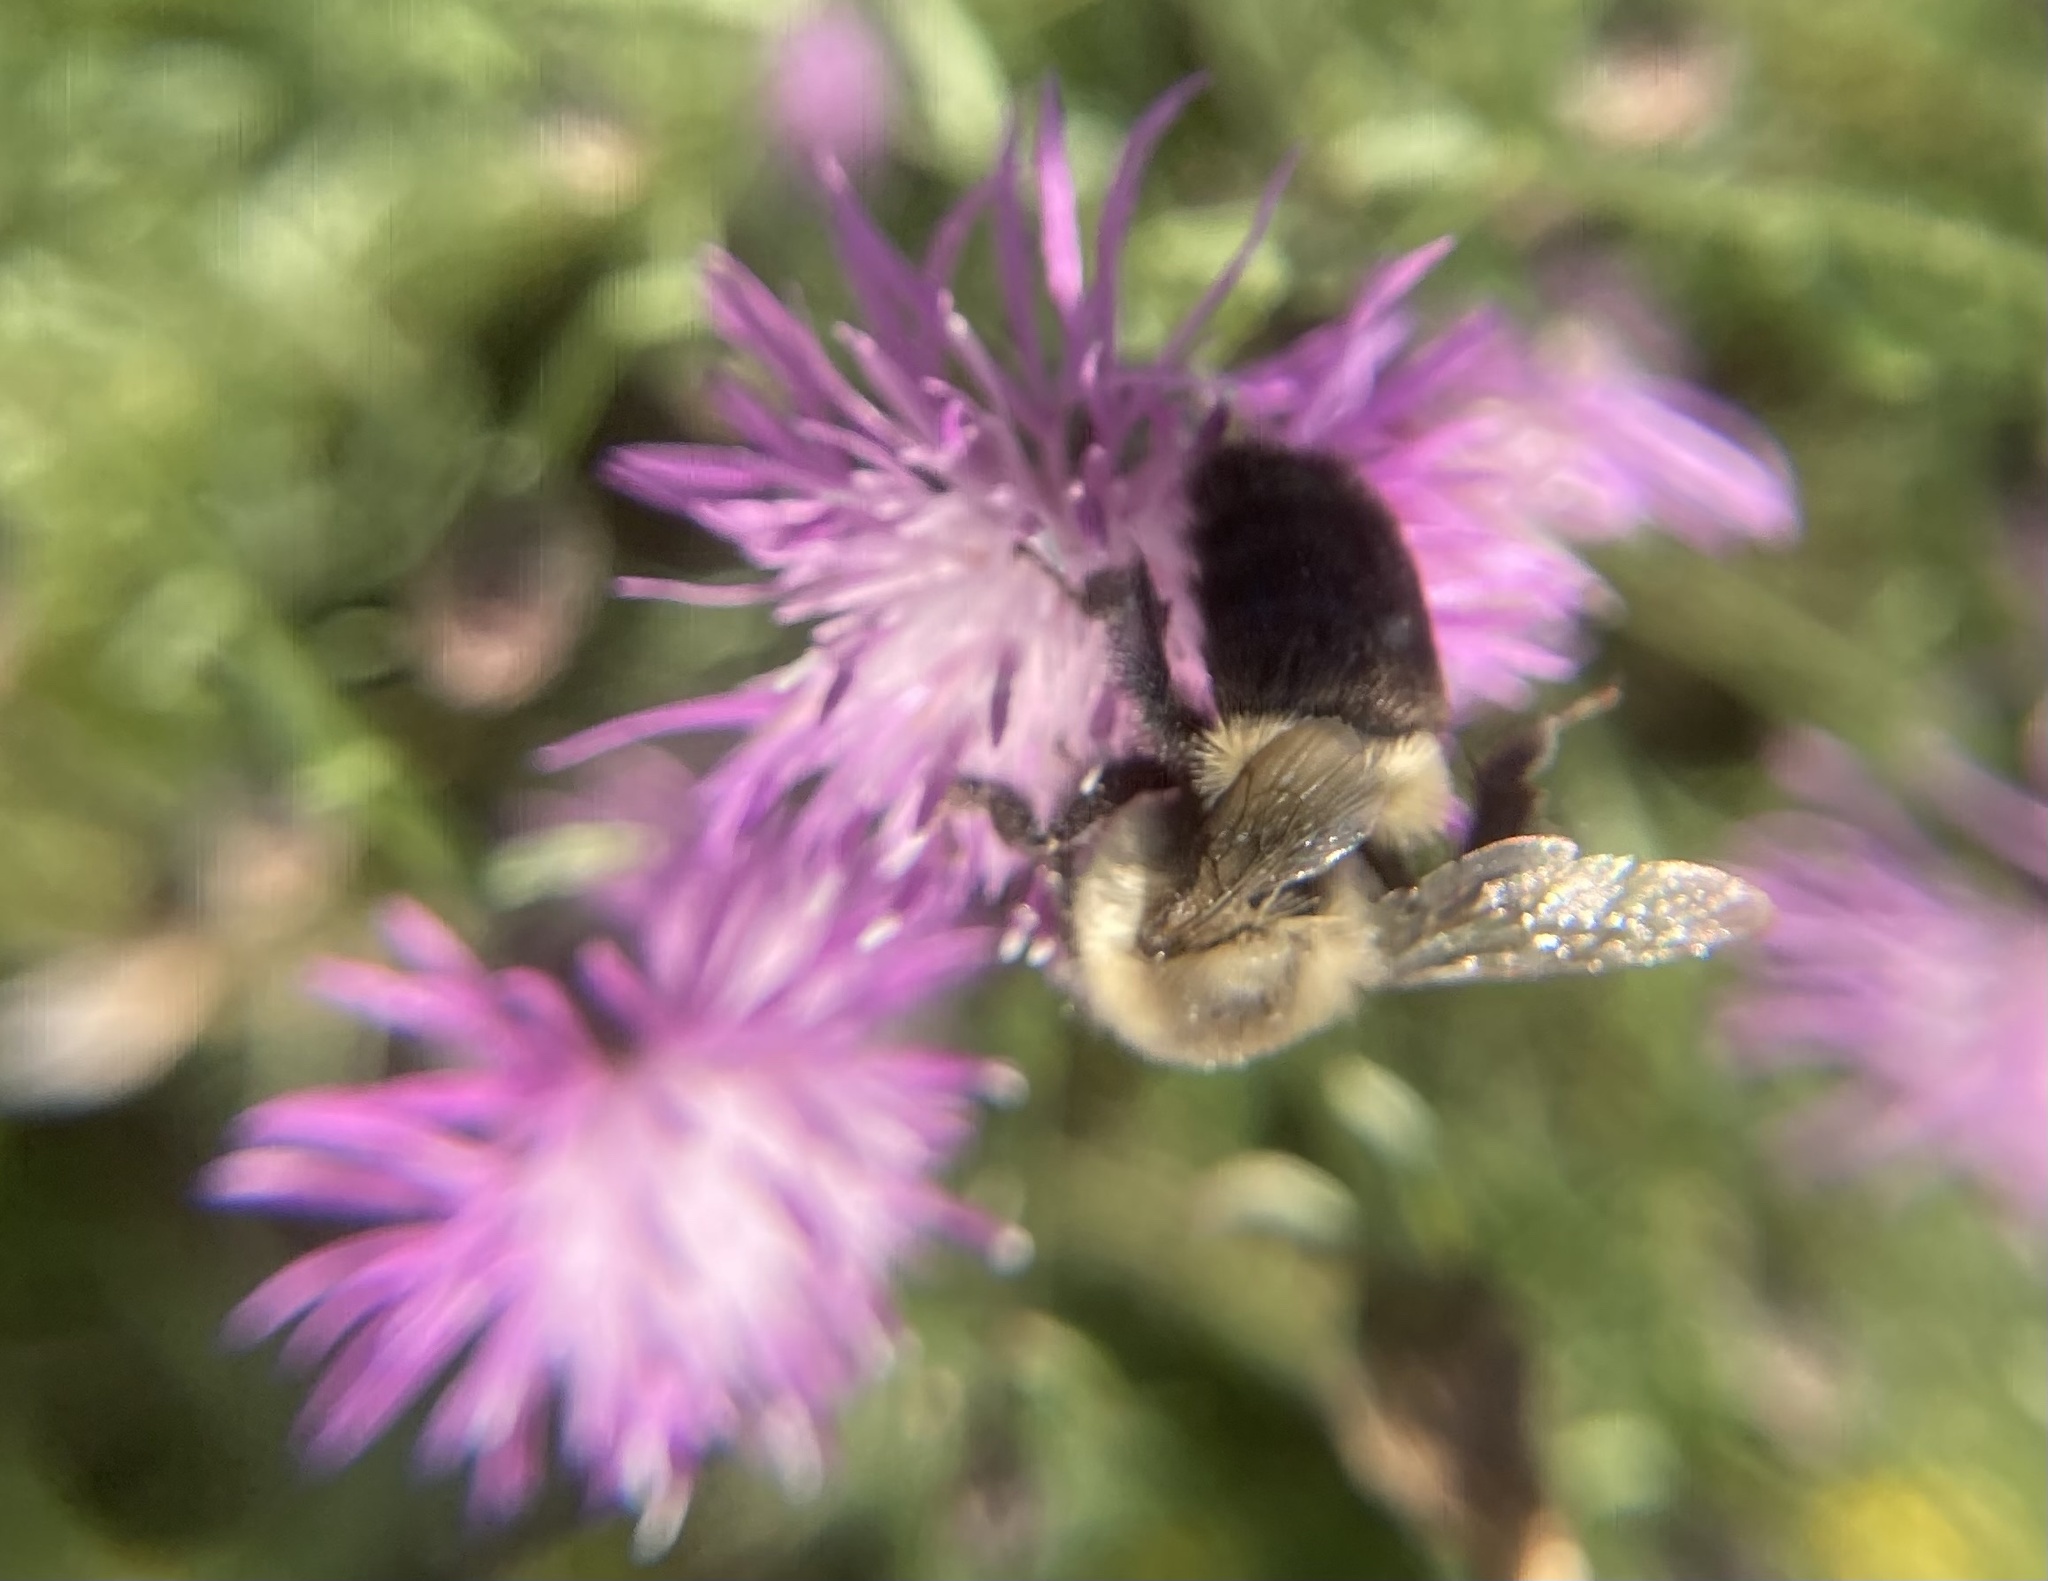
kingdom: Animalia
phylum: Arthropoda
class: Insecta
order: Hymenoptera
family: Apidae
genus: Bombus
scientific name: Bombus impatiens
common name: Common eastern bumble bee
